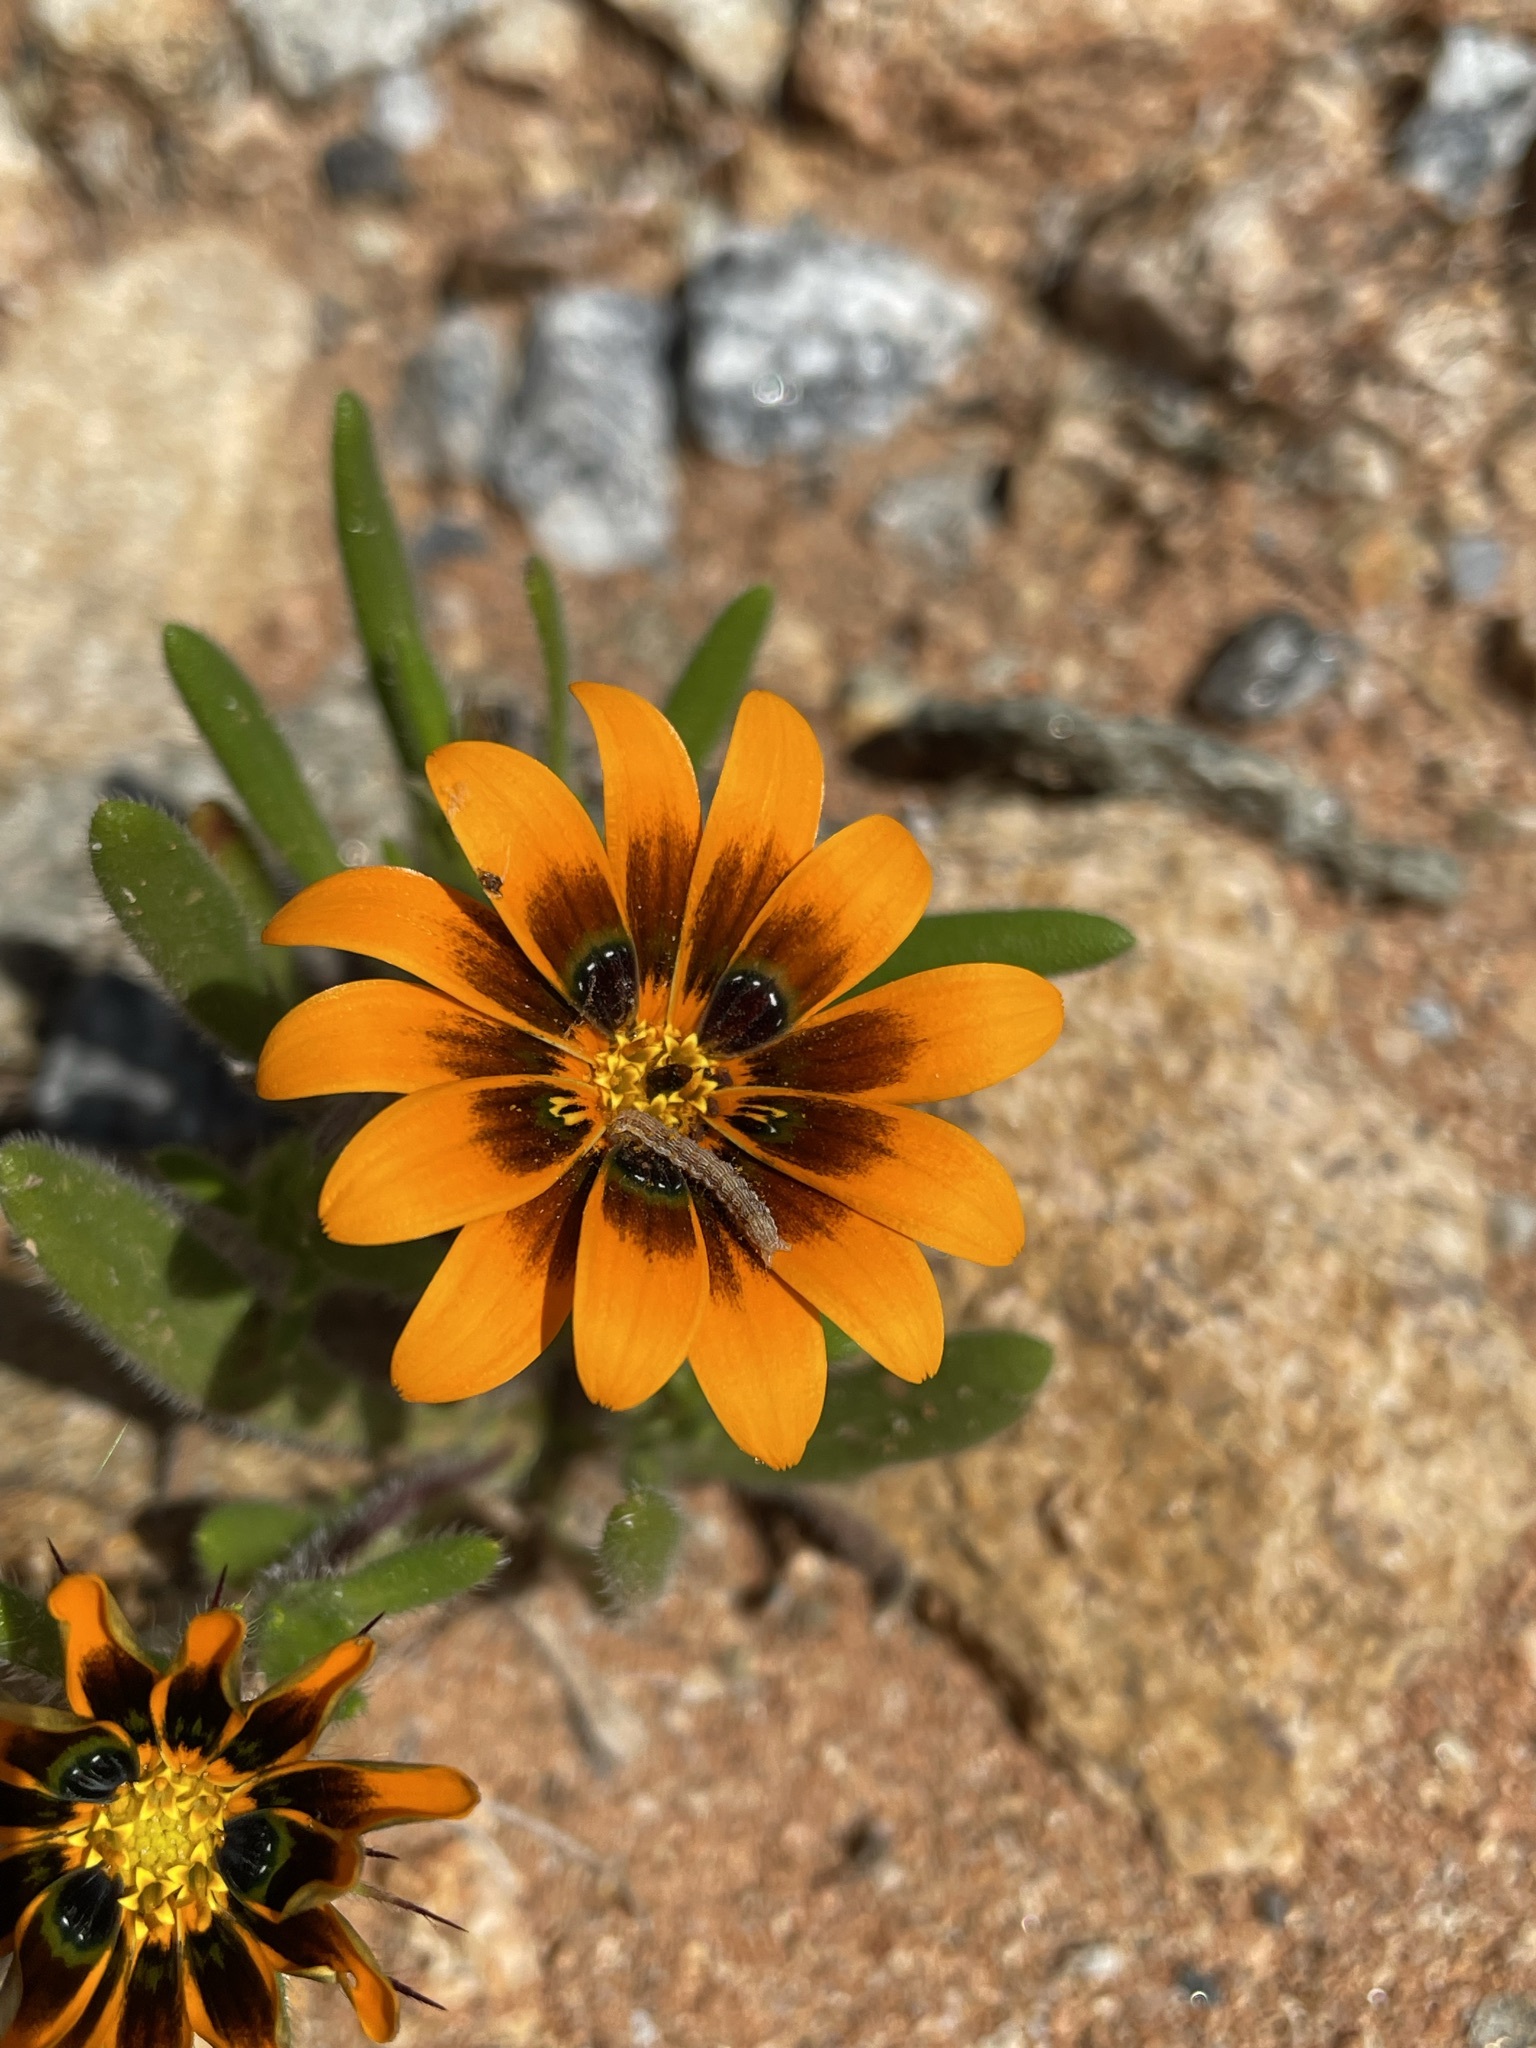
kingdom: Plantae
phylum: Tracheophyta
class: Magnoliopsida
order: Asterales
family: Asteraceae
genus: Gorteria
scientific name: Gorteria diffusa
